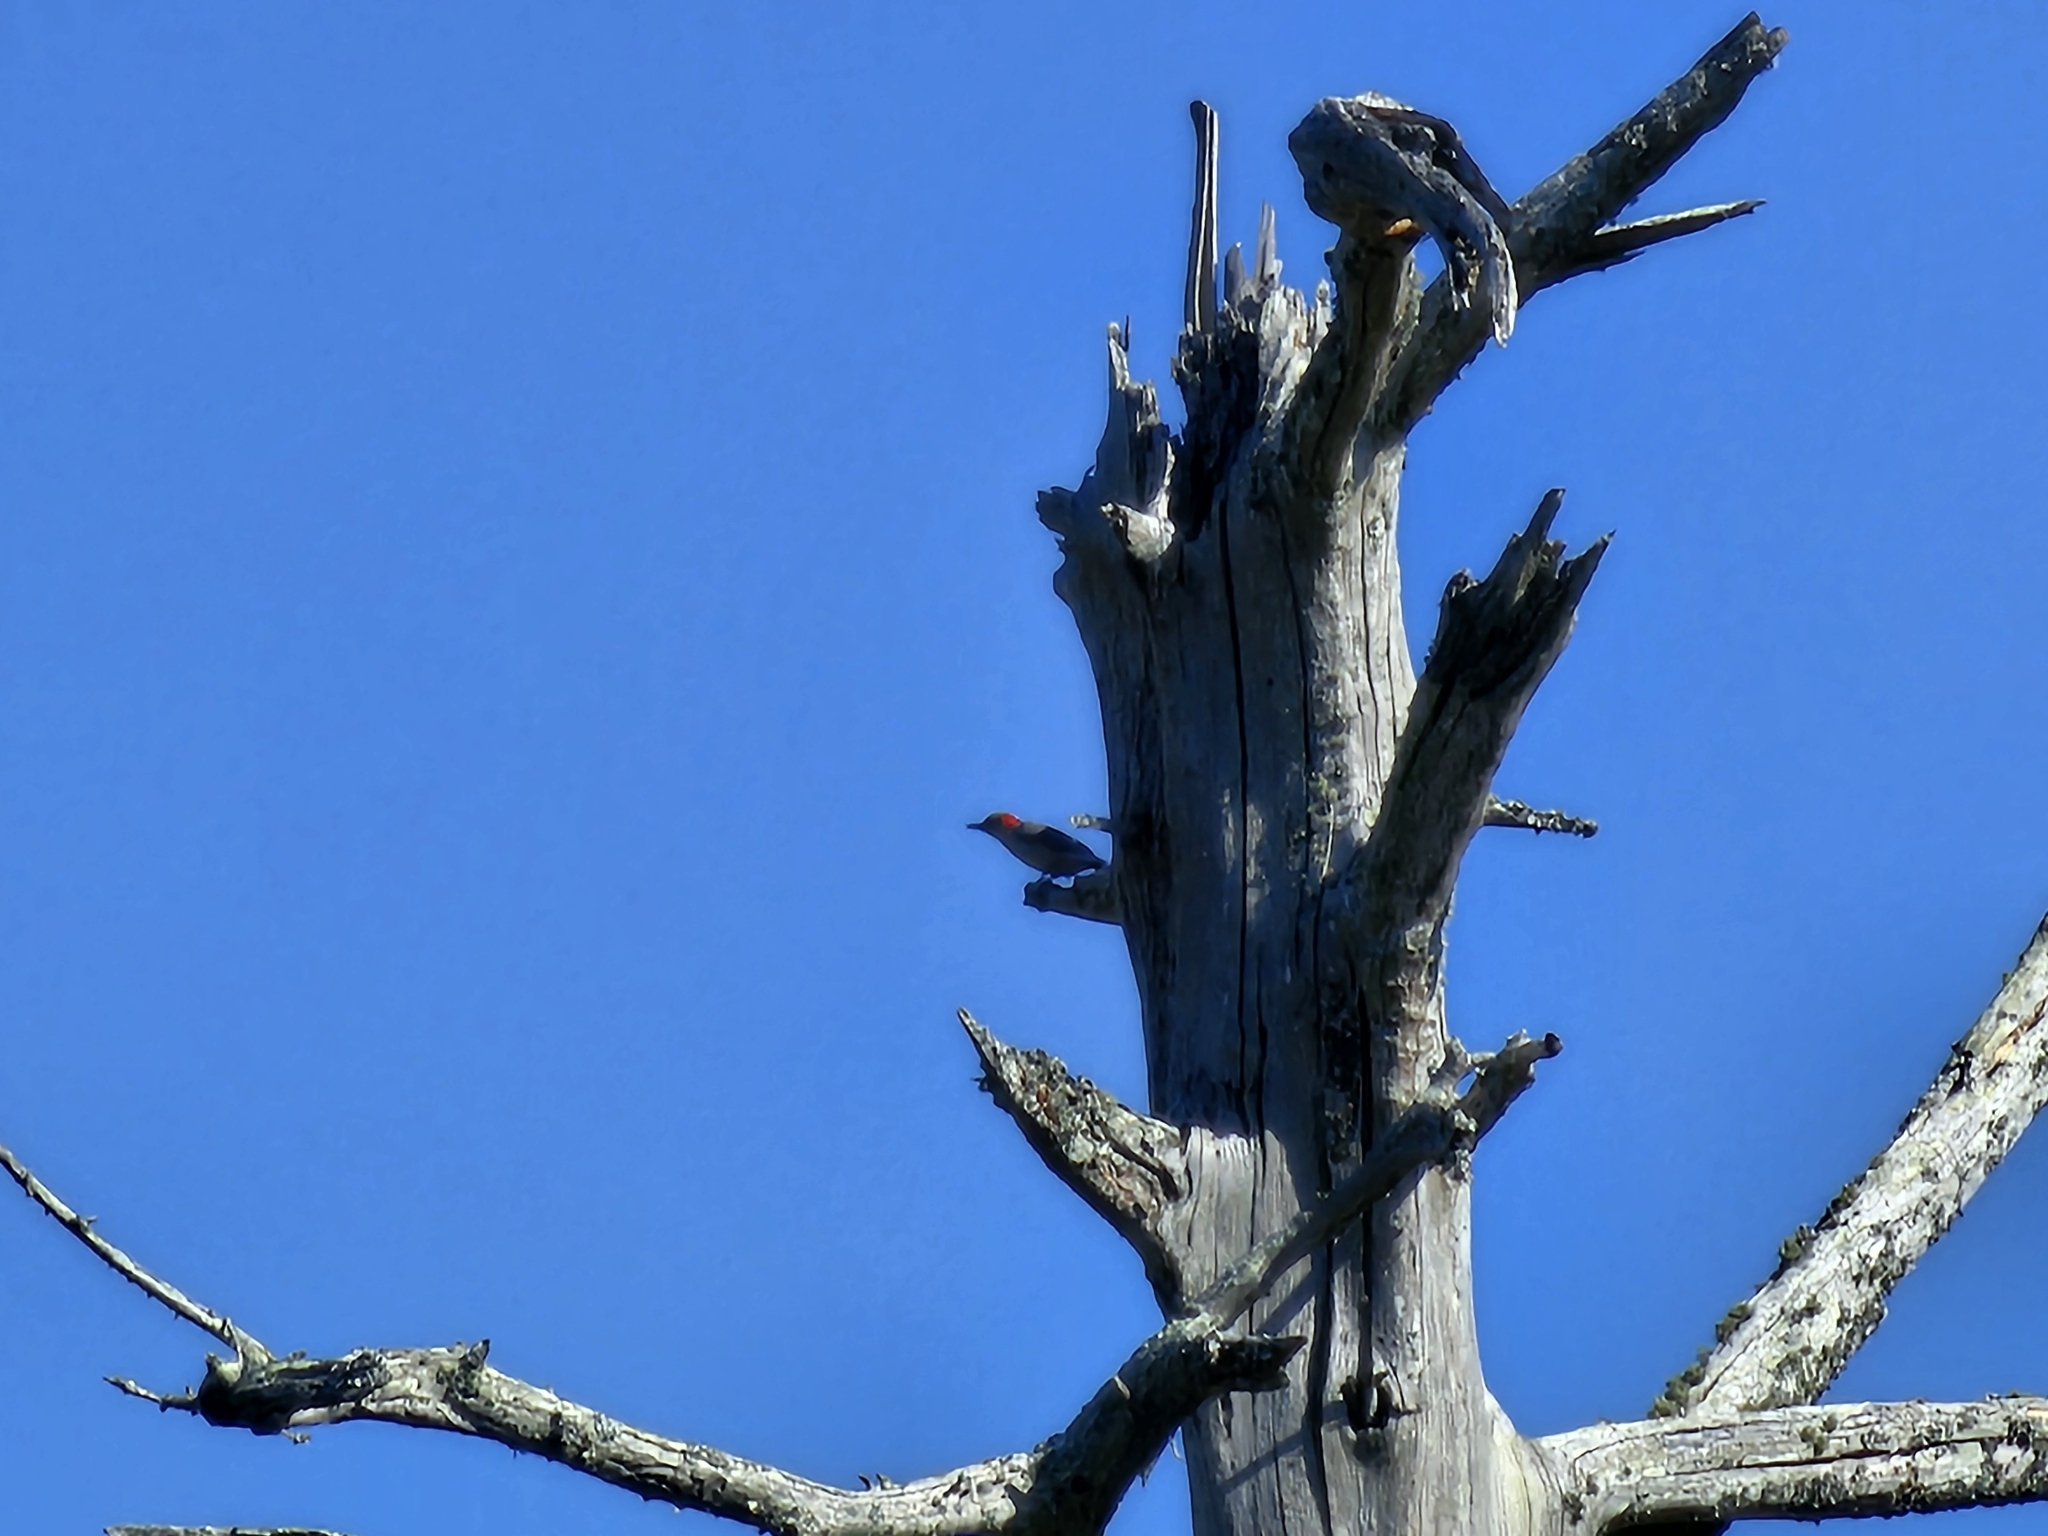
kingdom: Animalia
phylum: Chordata
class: Aves
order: Piciformes
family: Picidae
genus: Melanerpes
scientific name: Melanerpes carolinus
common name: Red-bellied woodpecker
